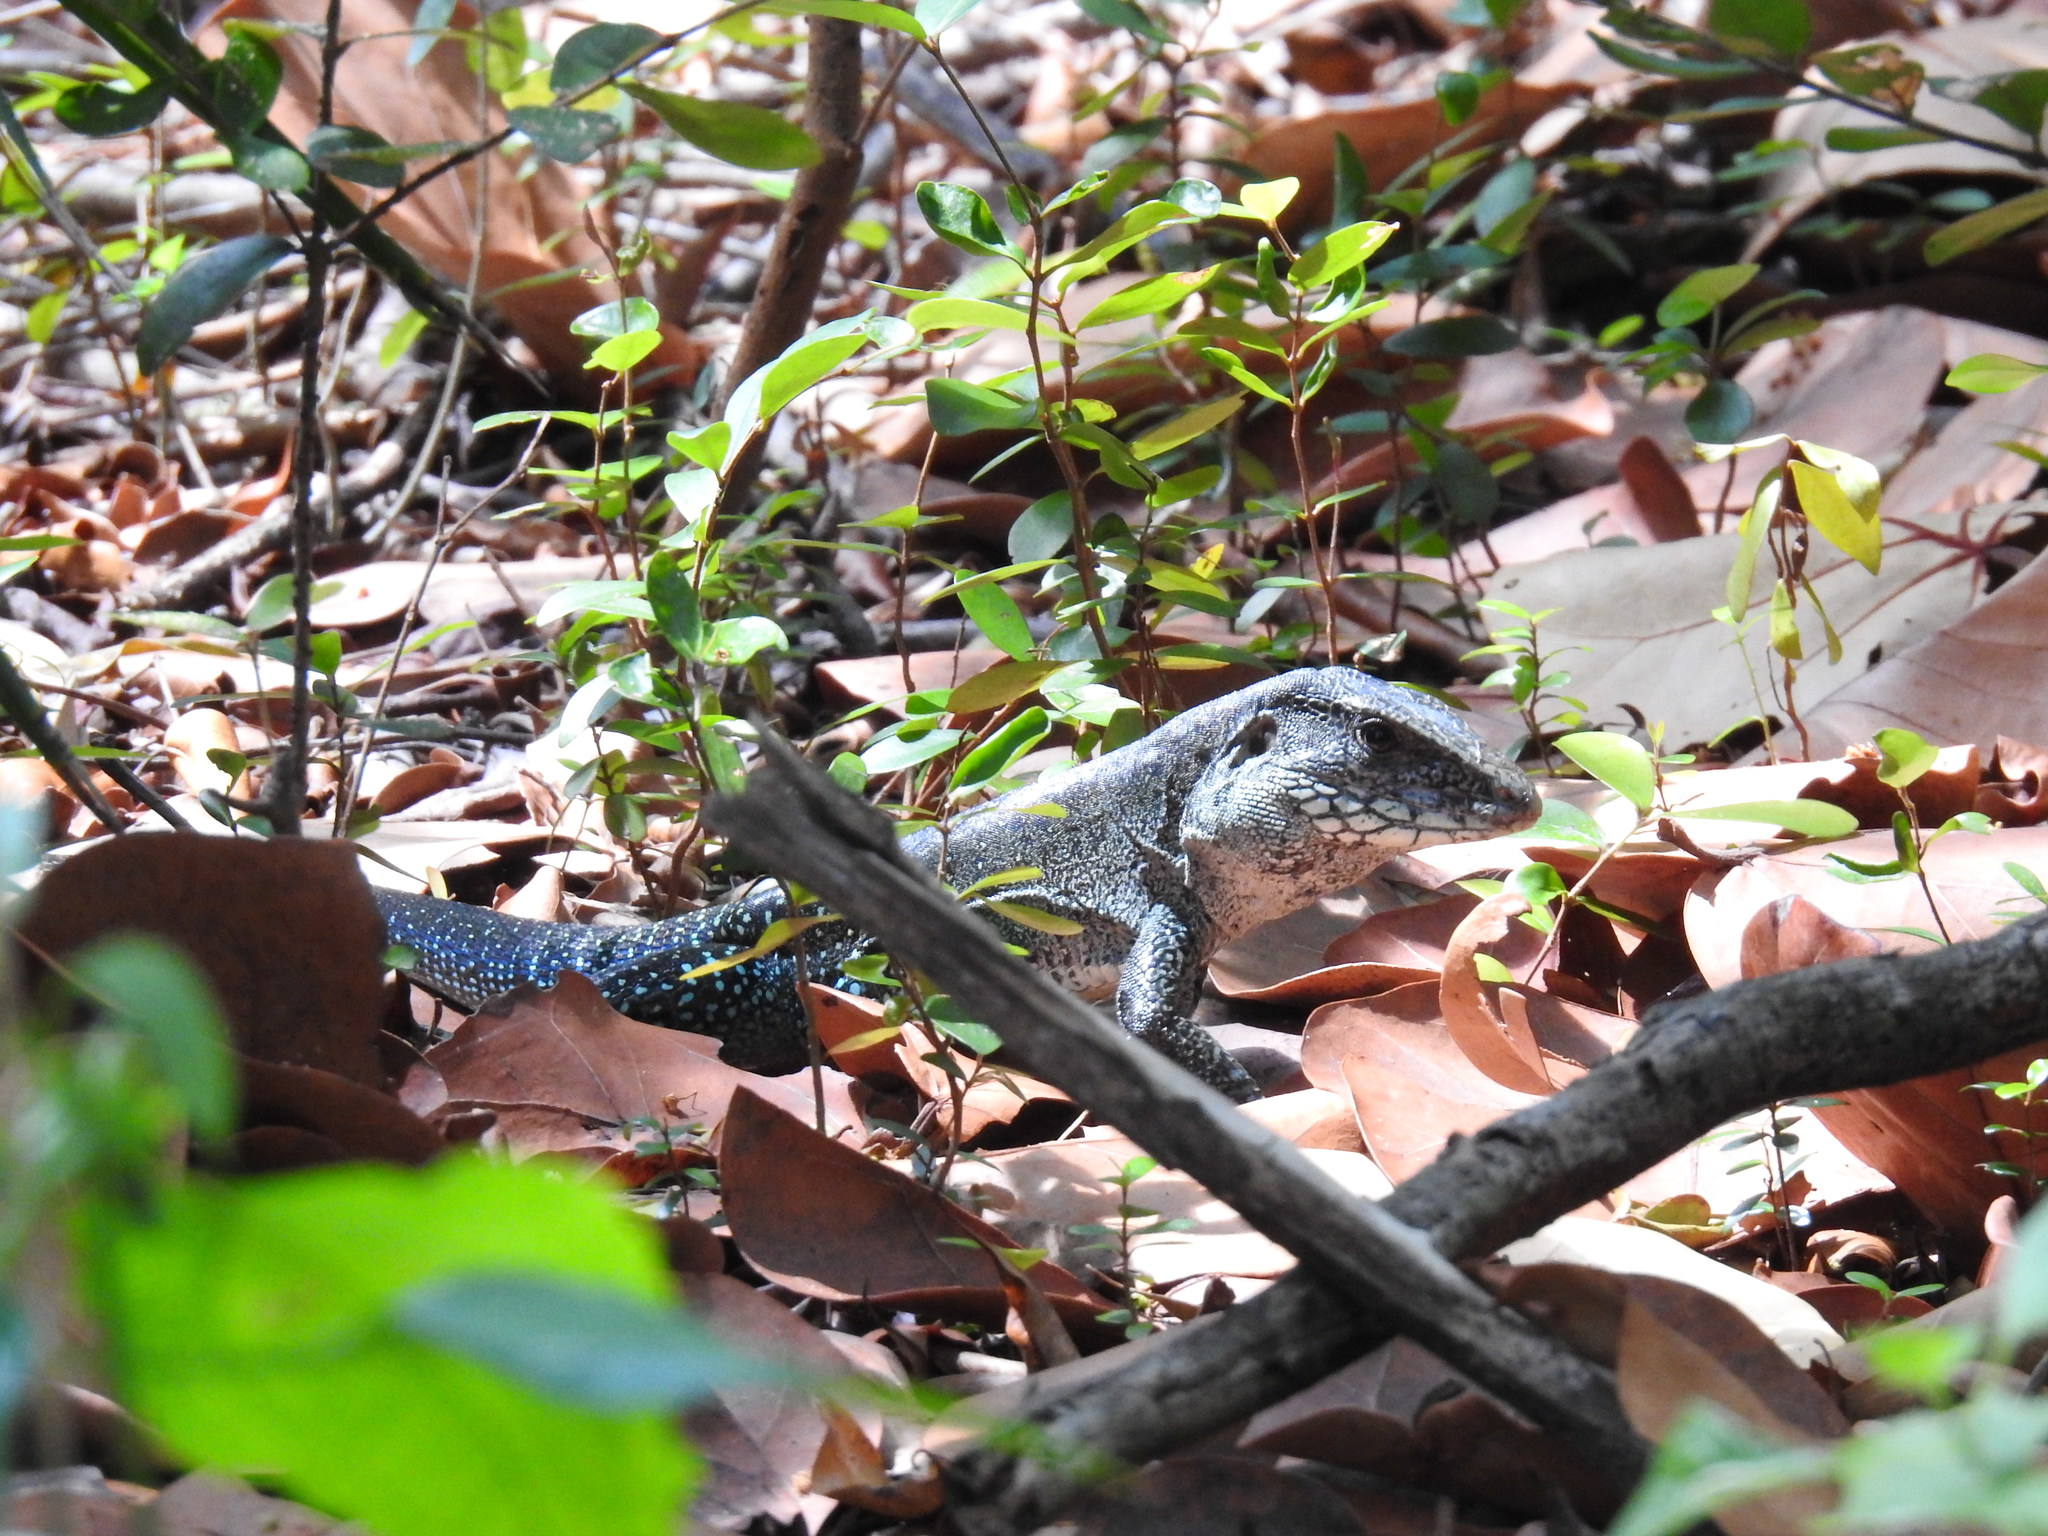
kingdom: Animalia
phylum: Chordata
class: Squamata
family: Teiidae
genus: Ameiva
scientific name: Ameiva praesignis
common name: Giant ameiva
